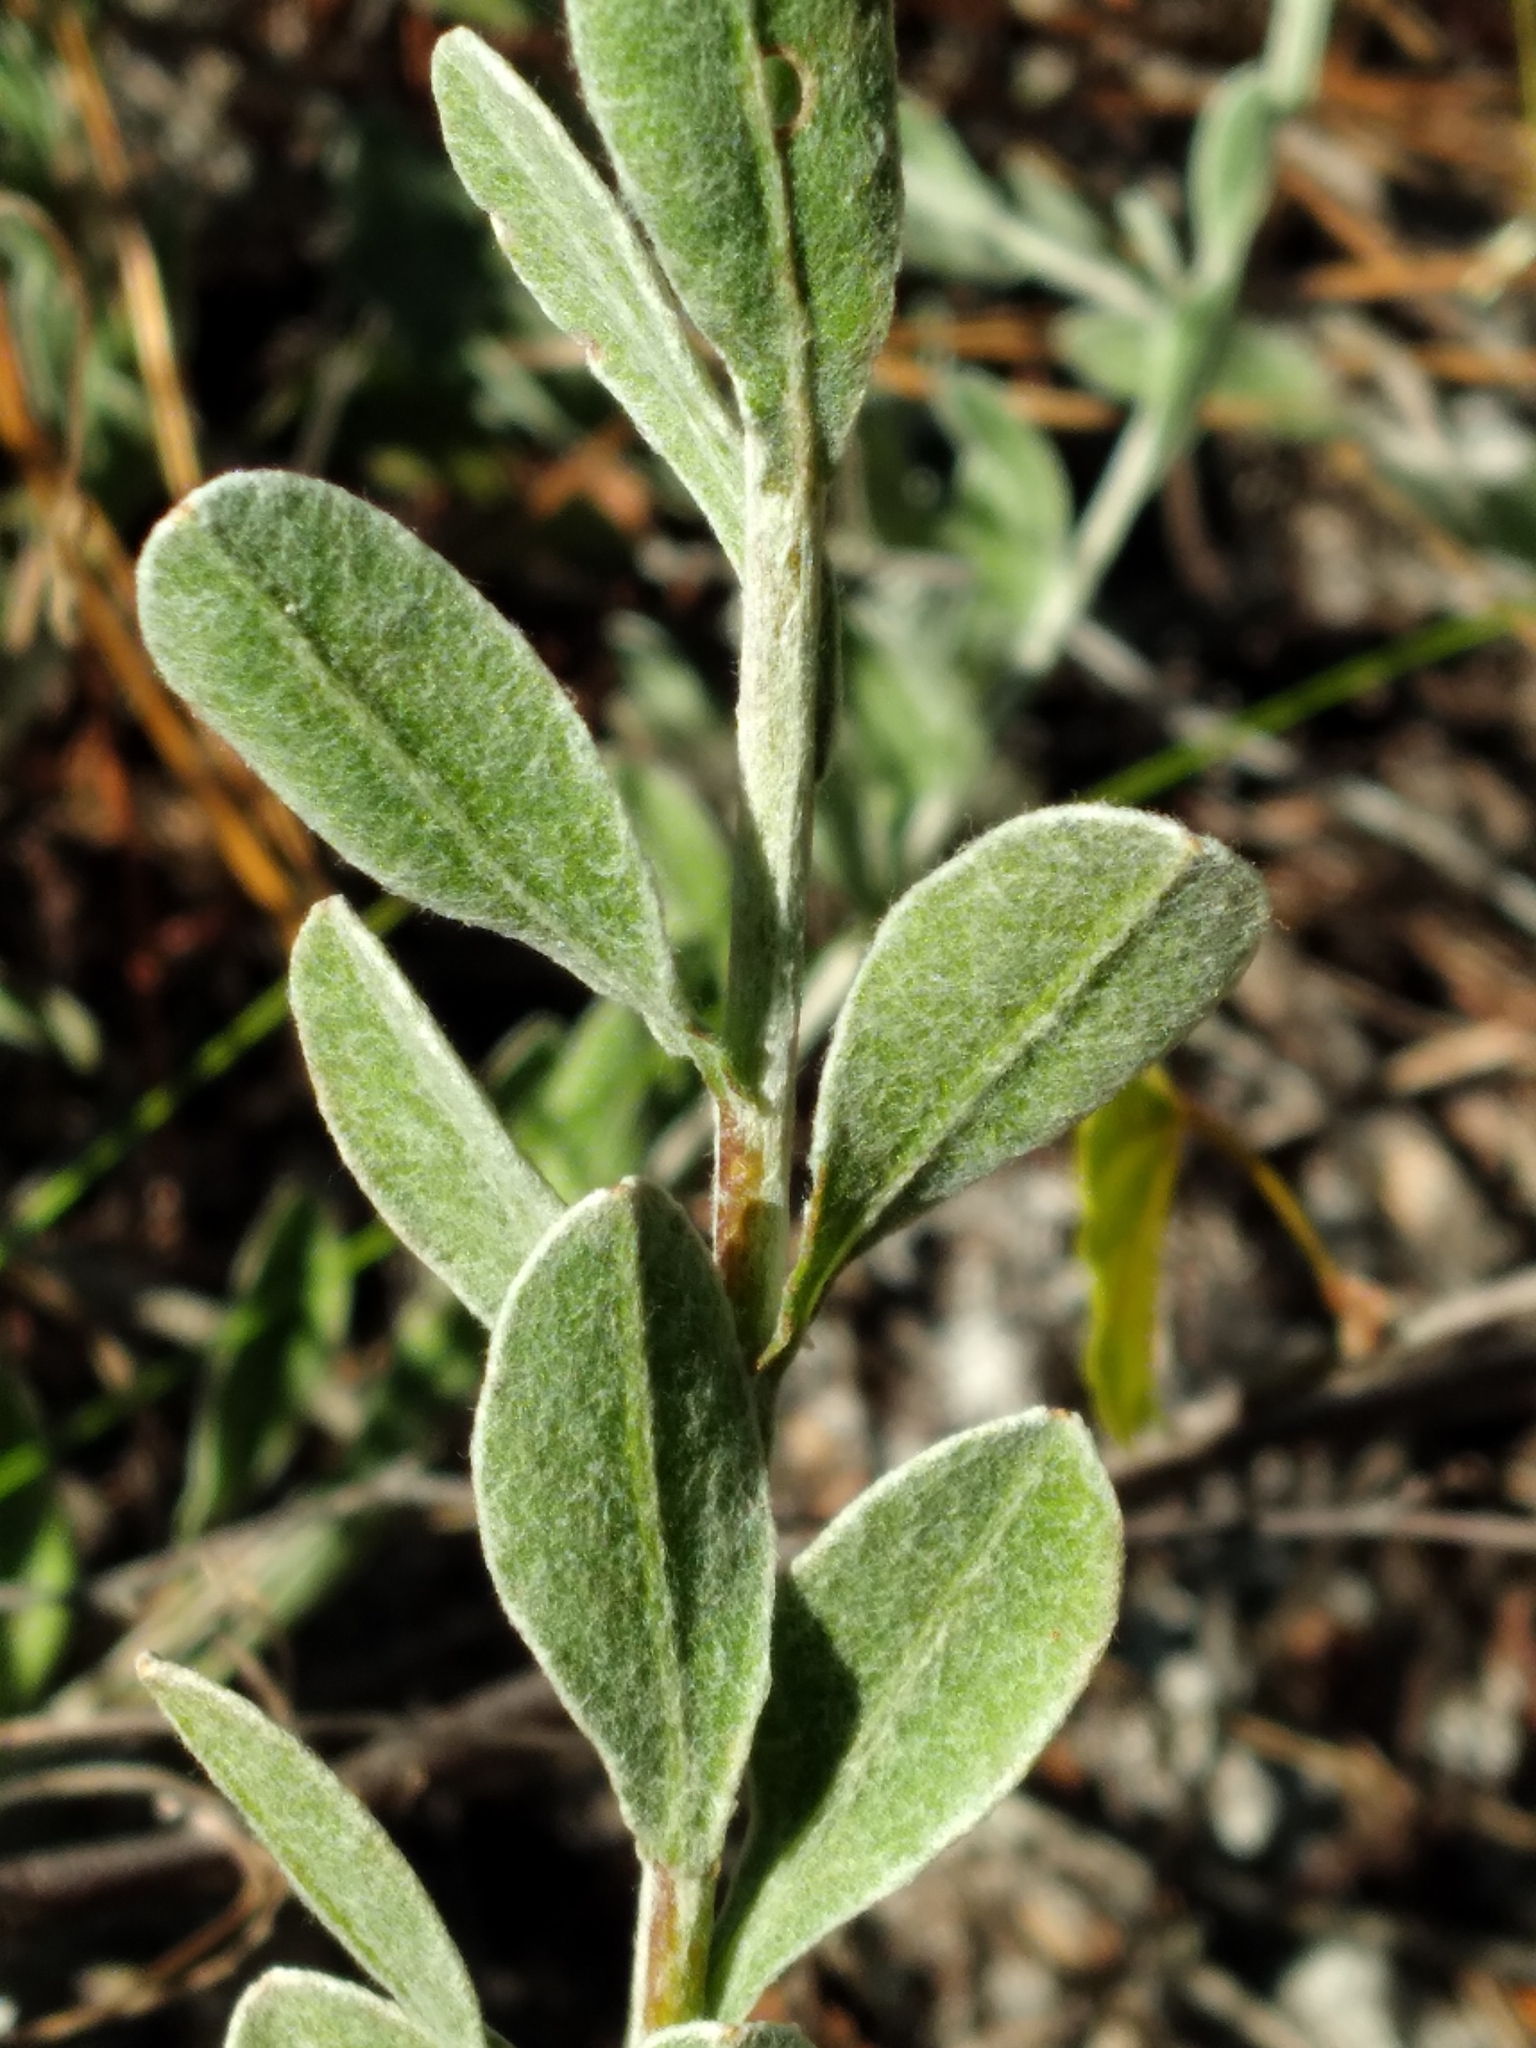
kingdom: Plantae
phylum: Tracheophyta
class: Magnoliopsida
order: Asterales
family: Asteraceae
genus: Chrysopsis
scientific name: Chrysopsis floridana
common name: Florida golden-aster
